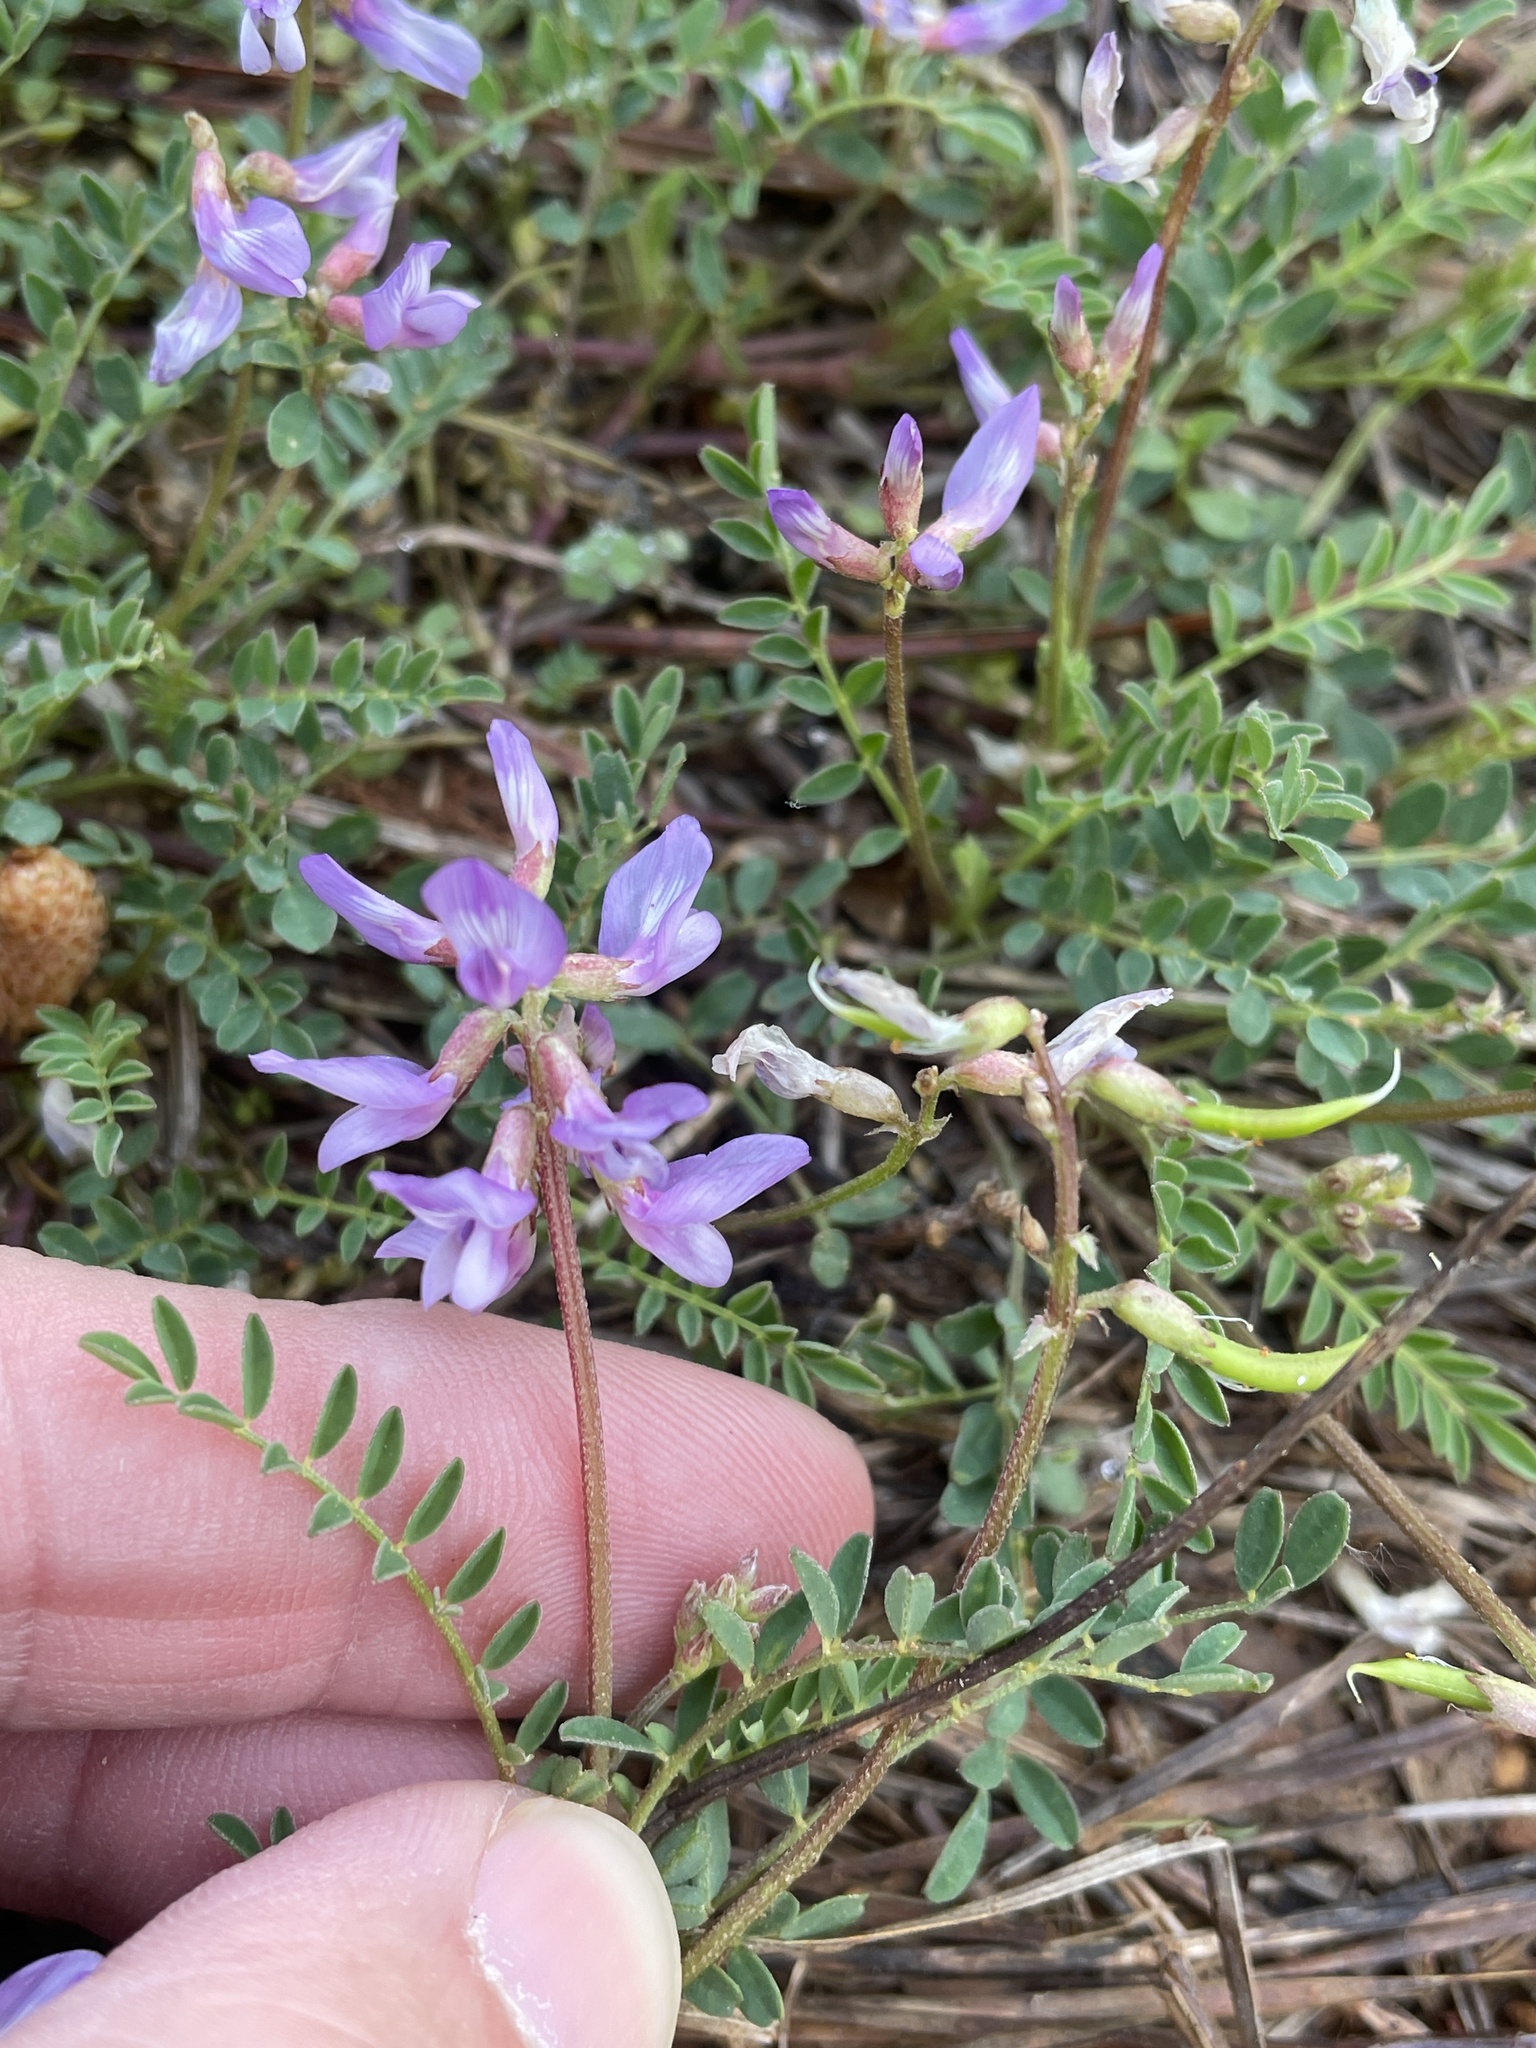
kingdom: Plantae
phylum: Tracheophyta
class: Magnoliopsida
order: Fabales
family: Fabaceae
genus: Astragalus
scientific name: Astragalus distortus
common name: Ozark milk-vetch
